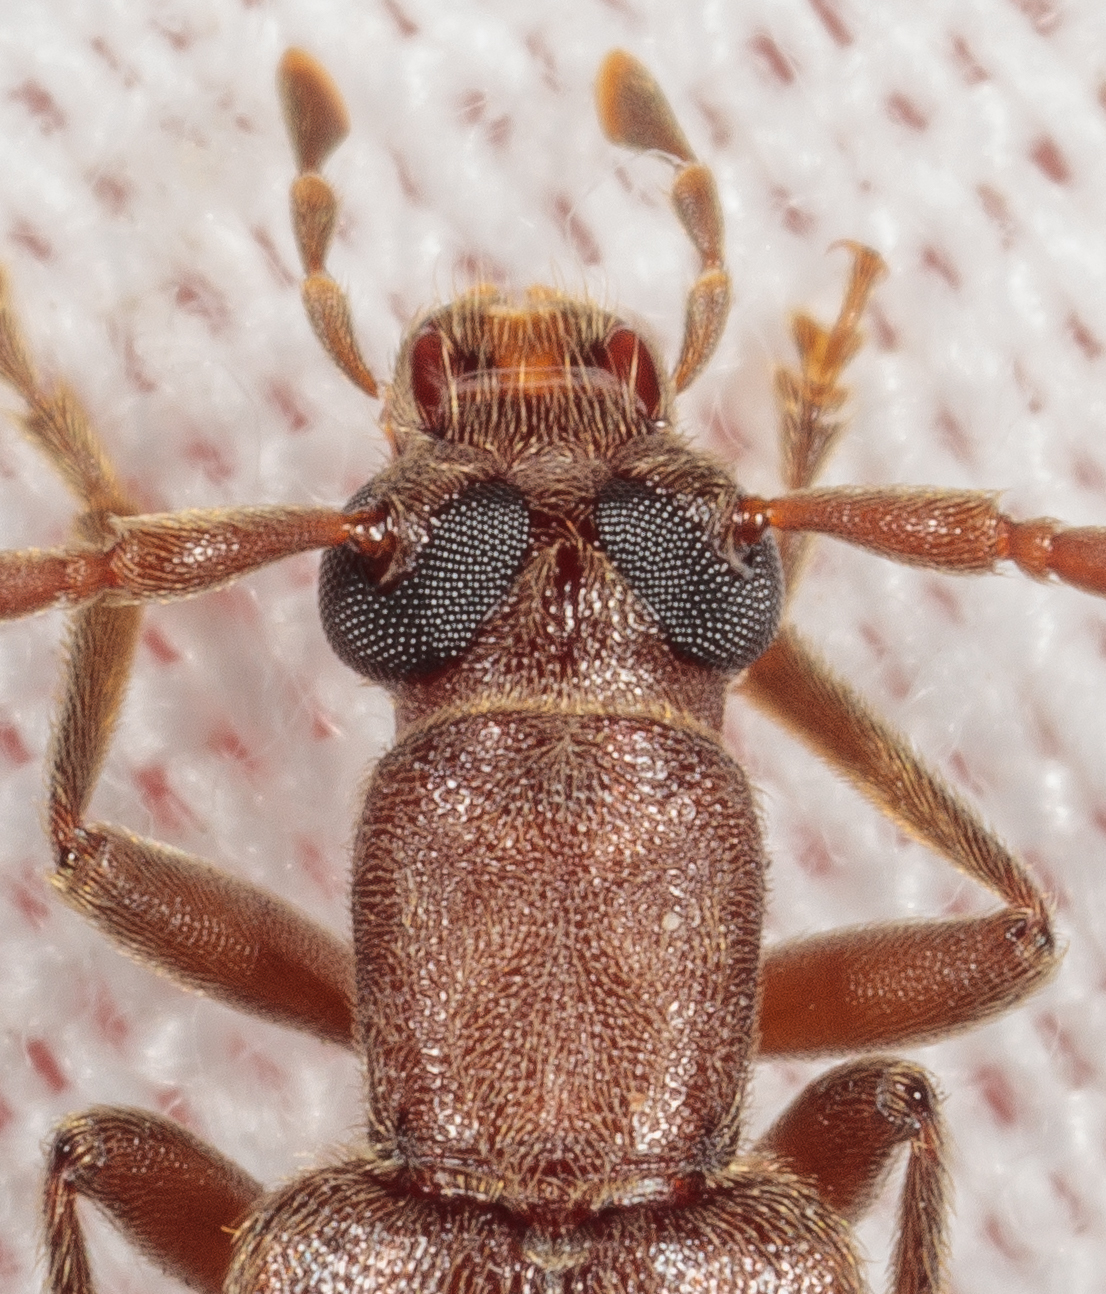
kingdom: Animalia
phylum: Arthropoda
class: Insecta
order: Coleoptera
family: Oedemeridae
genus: Sparedrus
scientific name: Sparedrus aspersus
